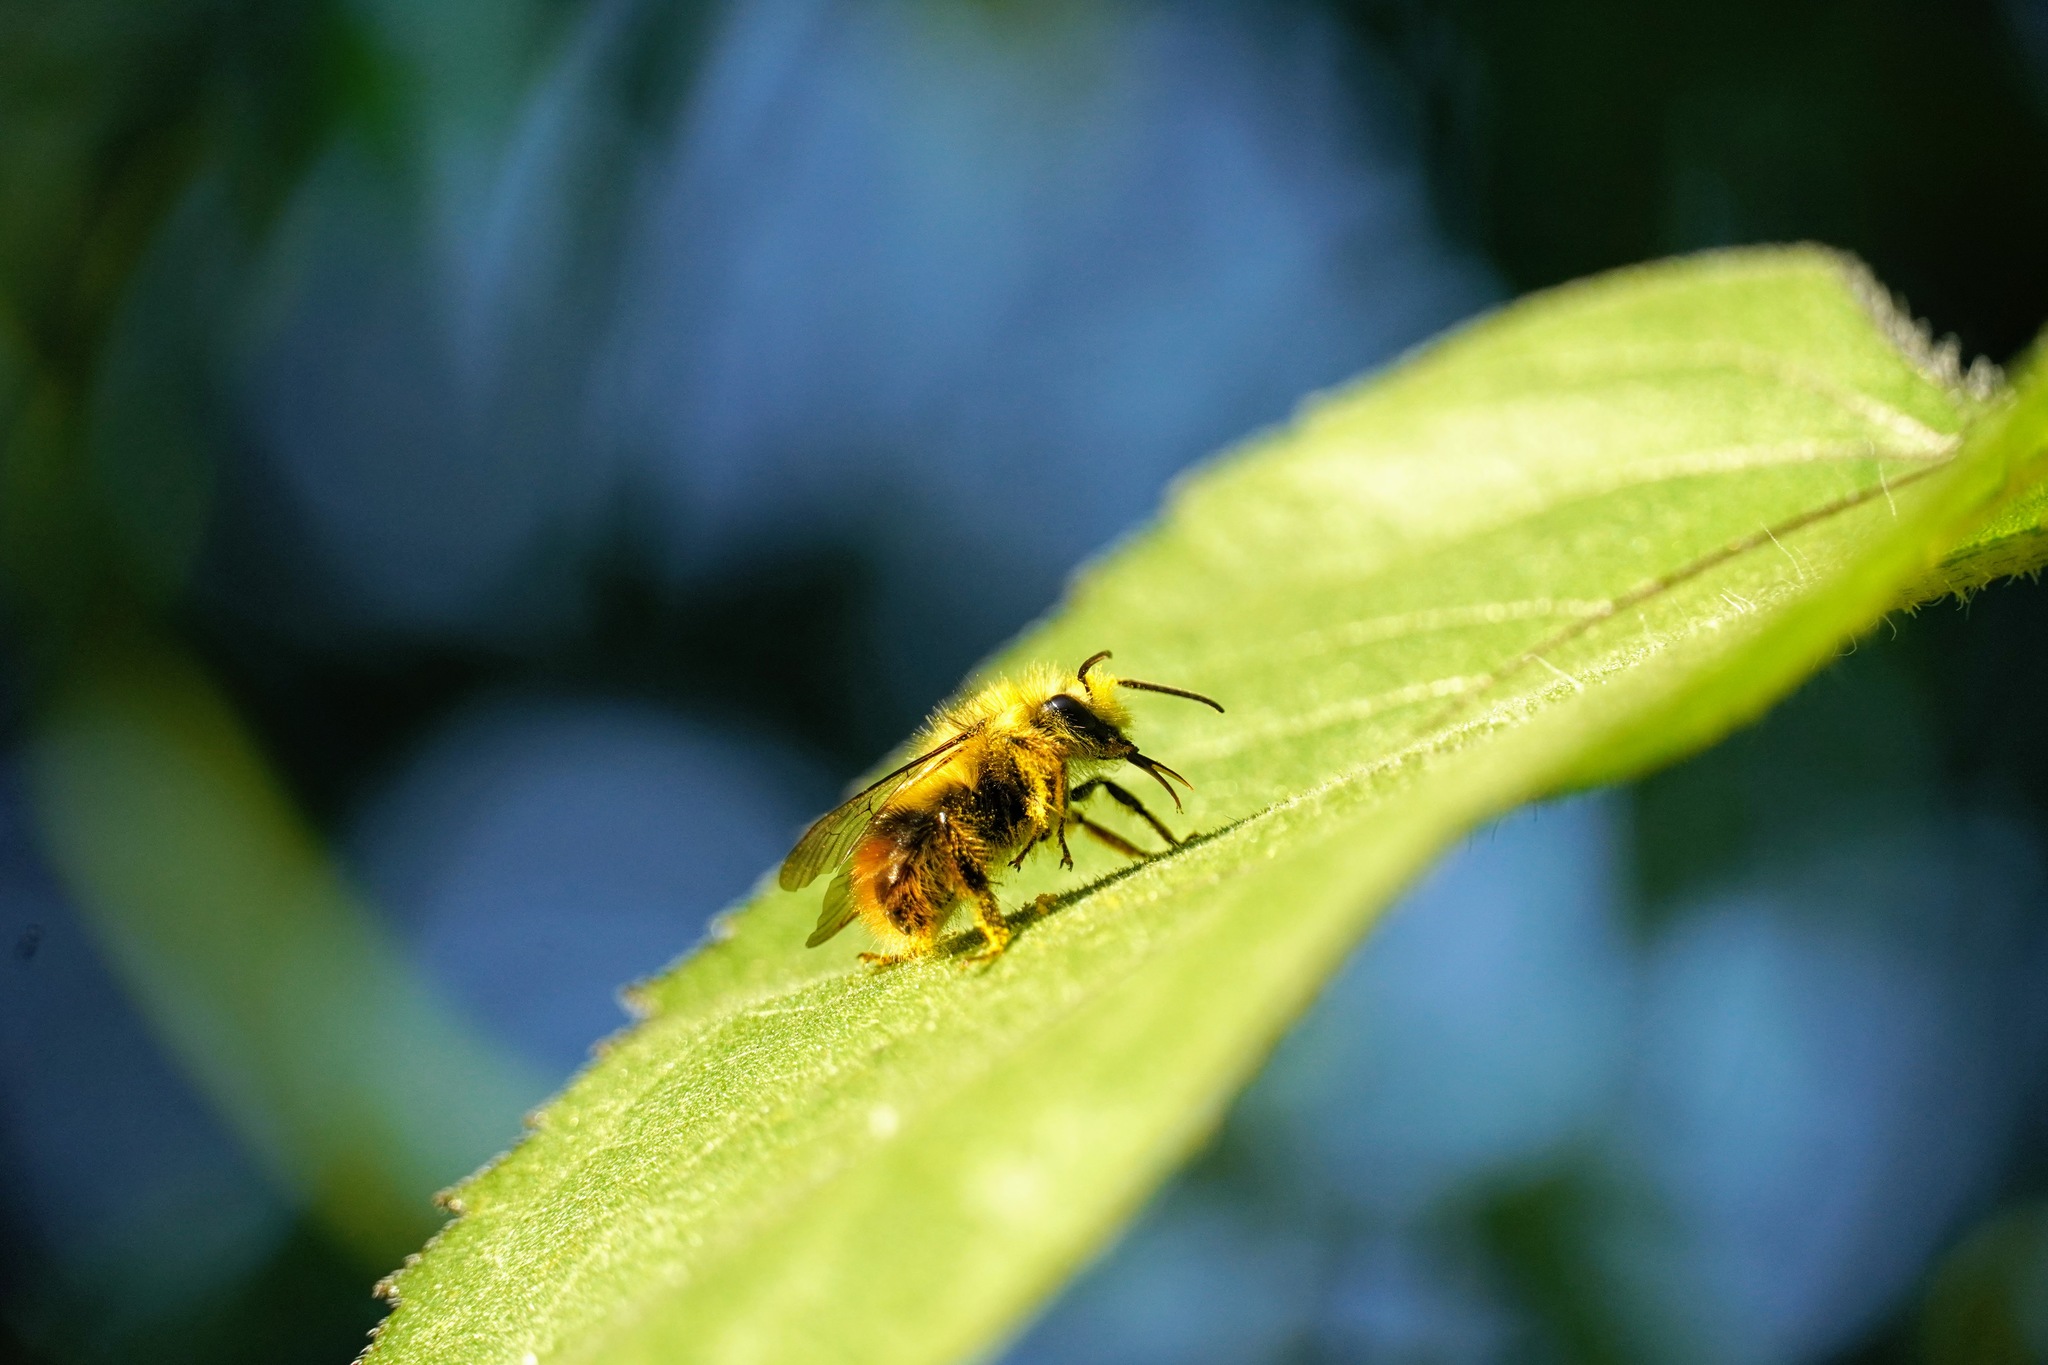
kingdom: Animalia
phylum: Arthropoda
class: Insecta
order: Hymenoptera
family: Apidae
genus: Bombus
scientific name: Bombus mixtus
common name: Fuzzy-horned bumble bee
